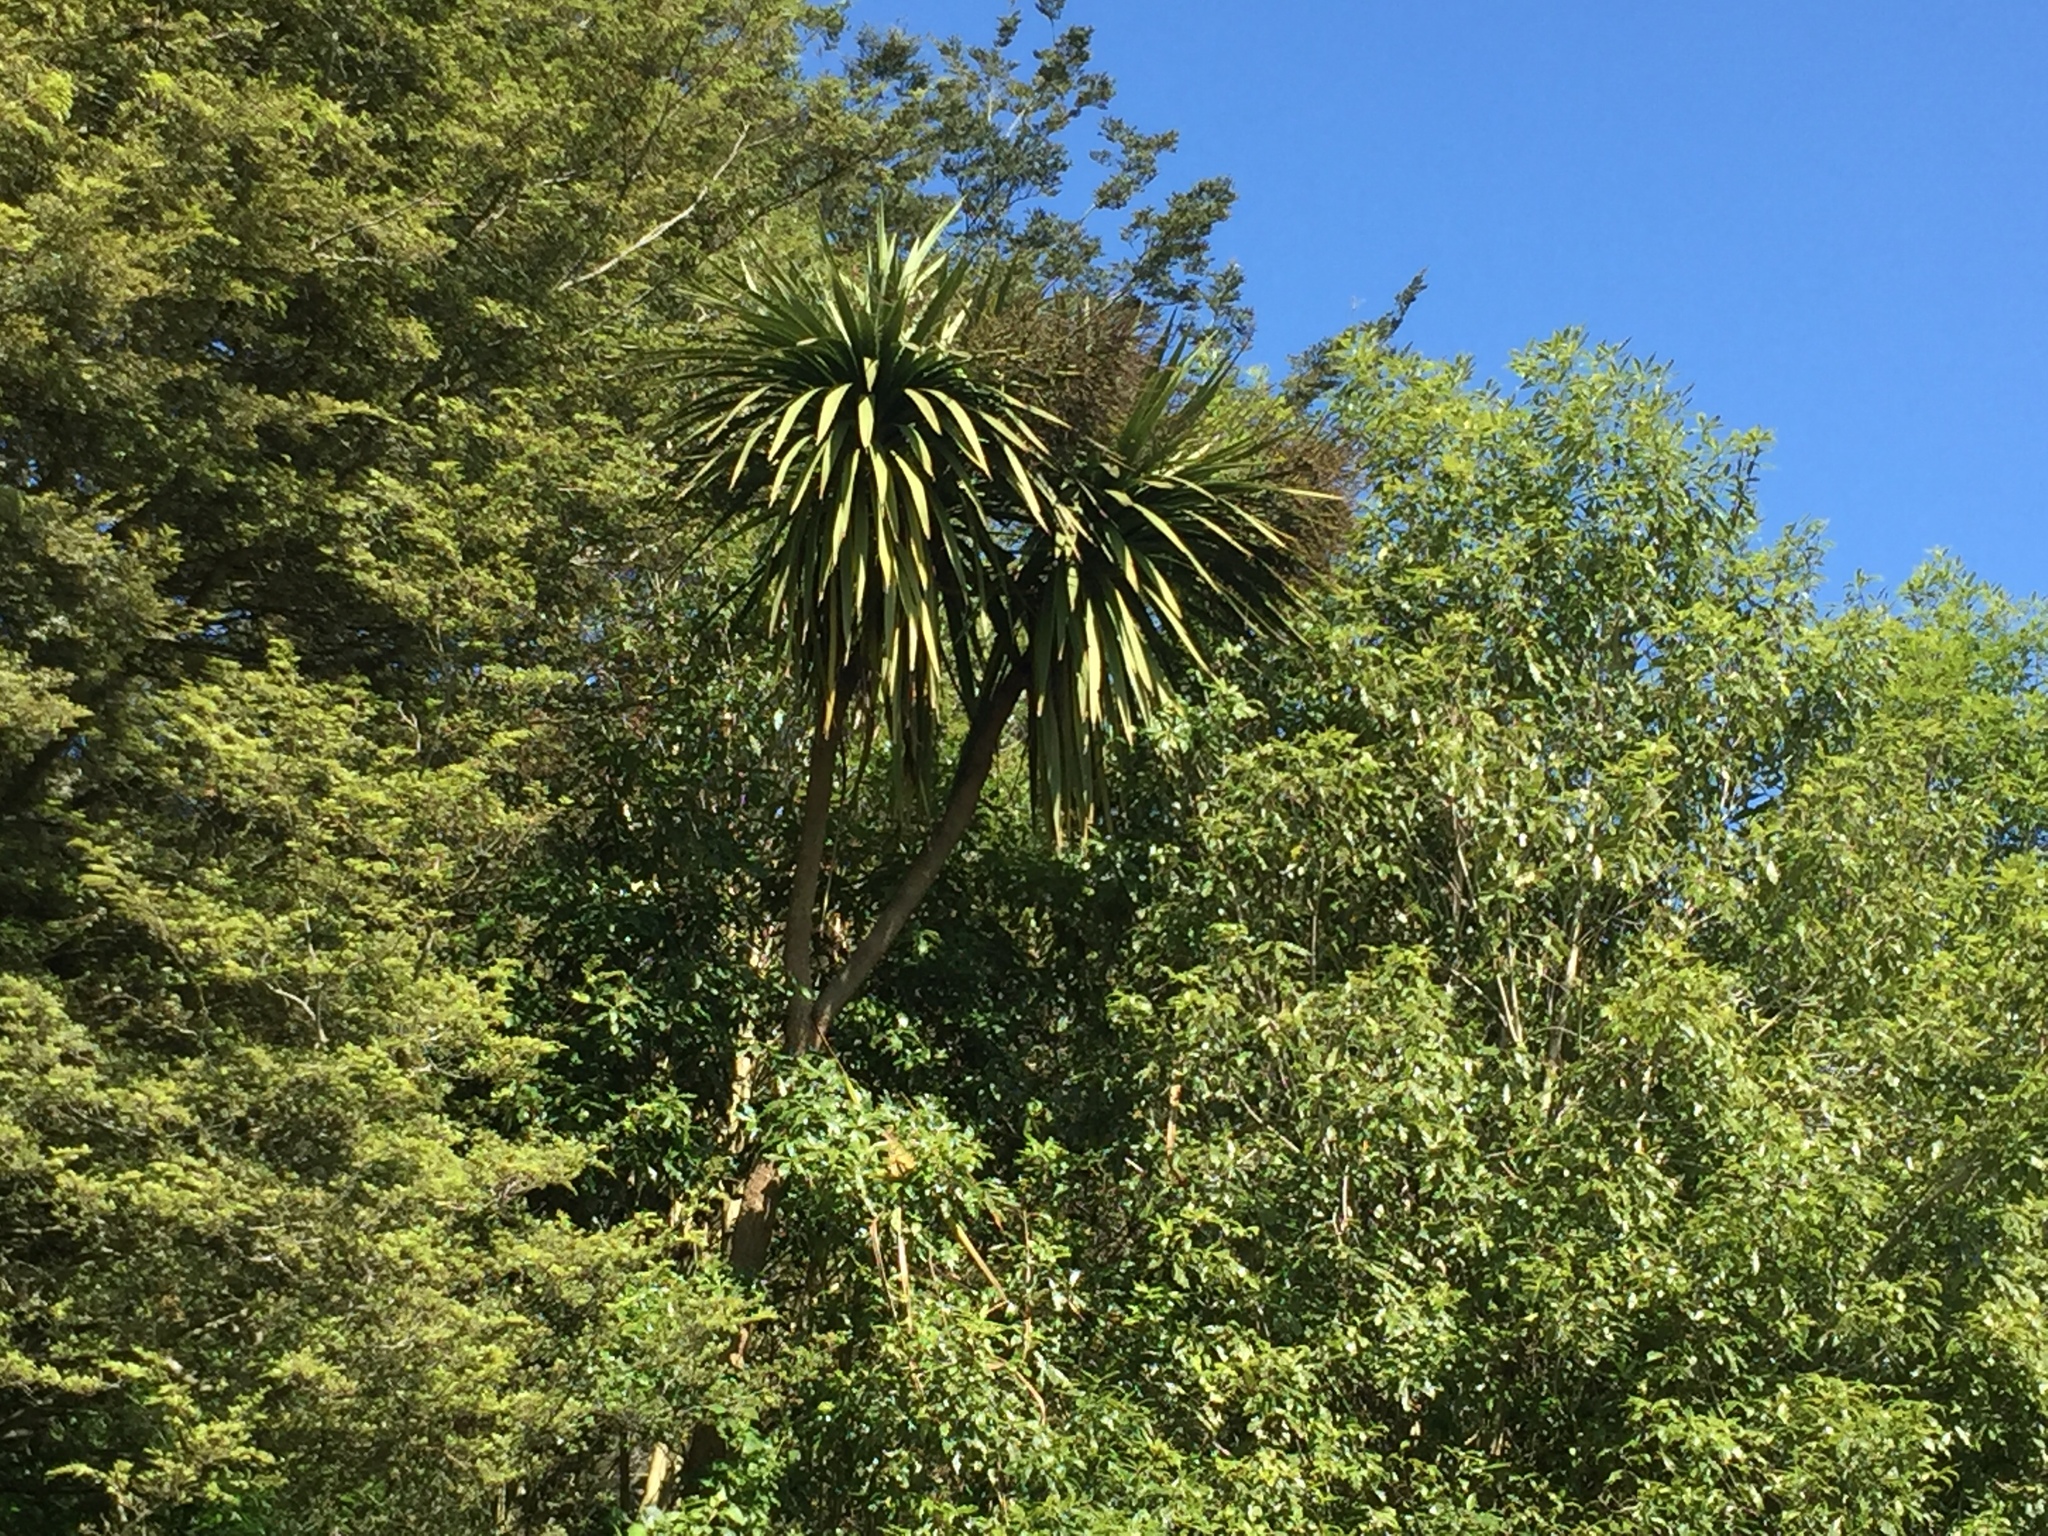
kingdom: Plantae
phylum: Tracheophyta
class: Liliopsida
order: Asparagales
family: Asparagaceae
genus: Cordyline
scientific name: Cordyline australis
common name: Cabbage-palm
